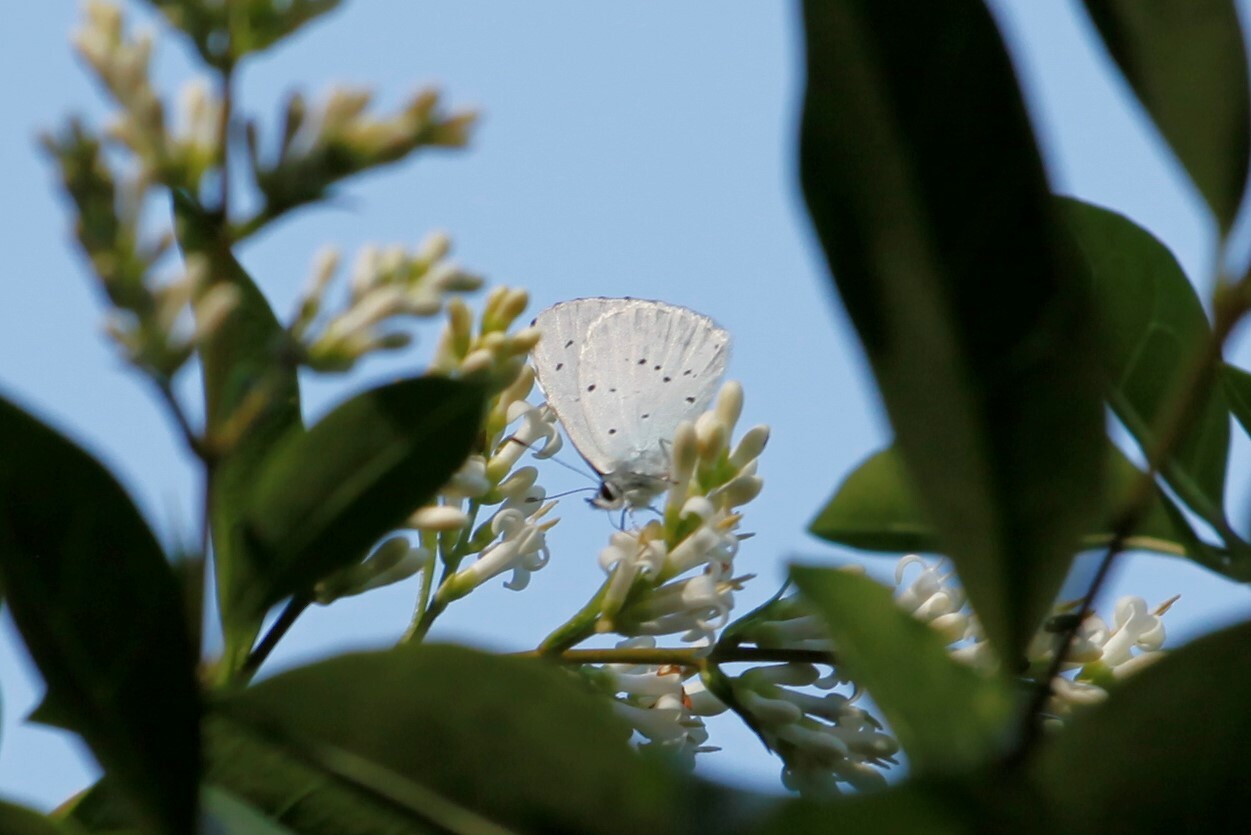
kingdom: Animalia
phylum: Arthropoda
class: Insecta
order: Lepidoptera
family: Lycaenidae
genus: Celastrina
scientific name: Celastrina argiolus
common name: Holly blue
